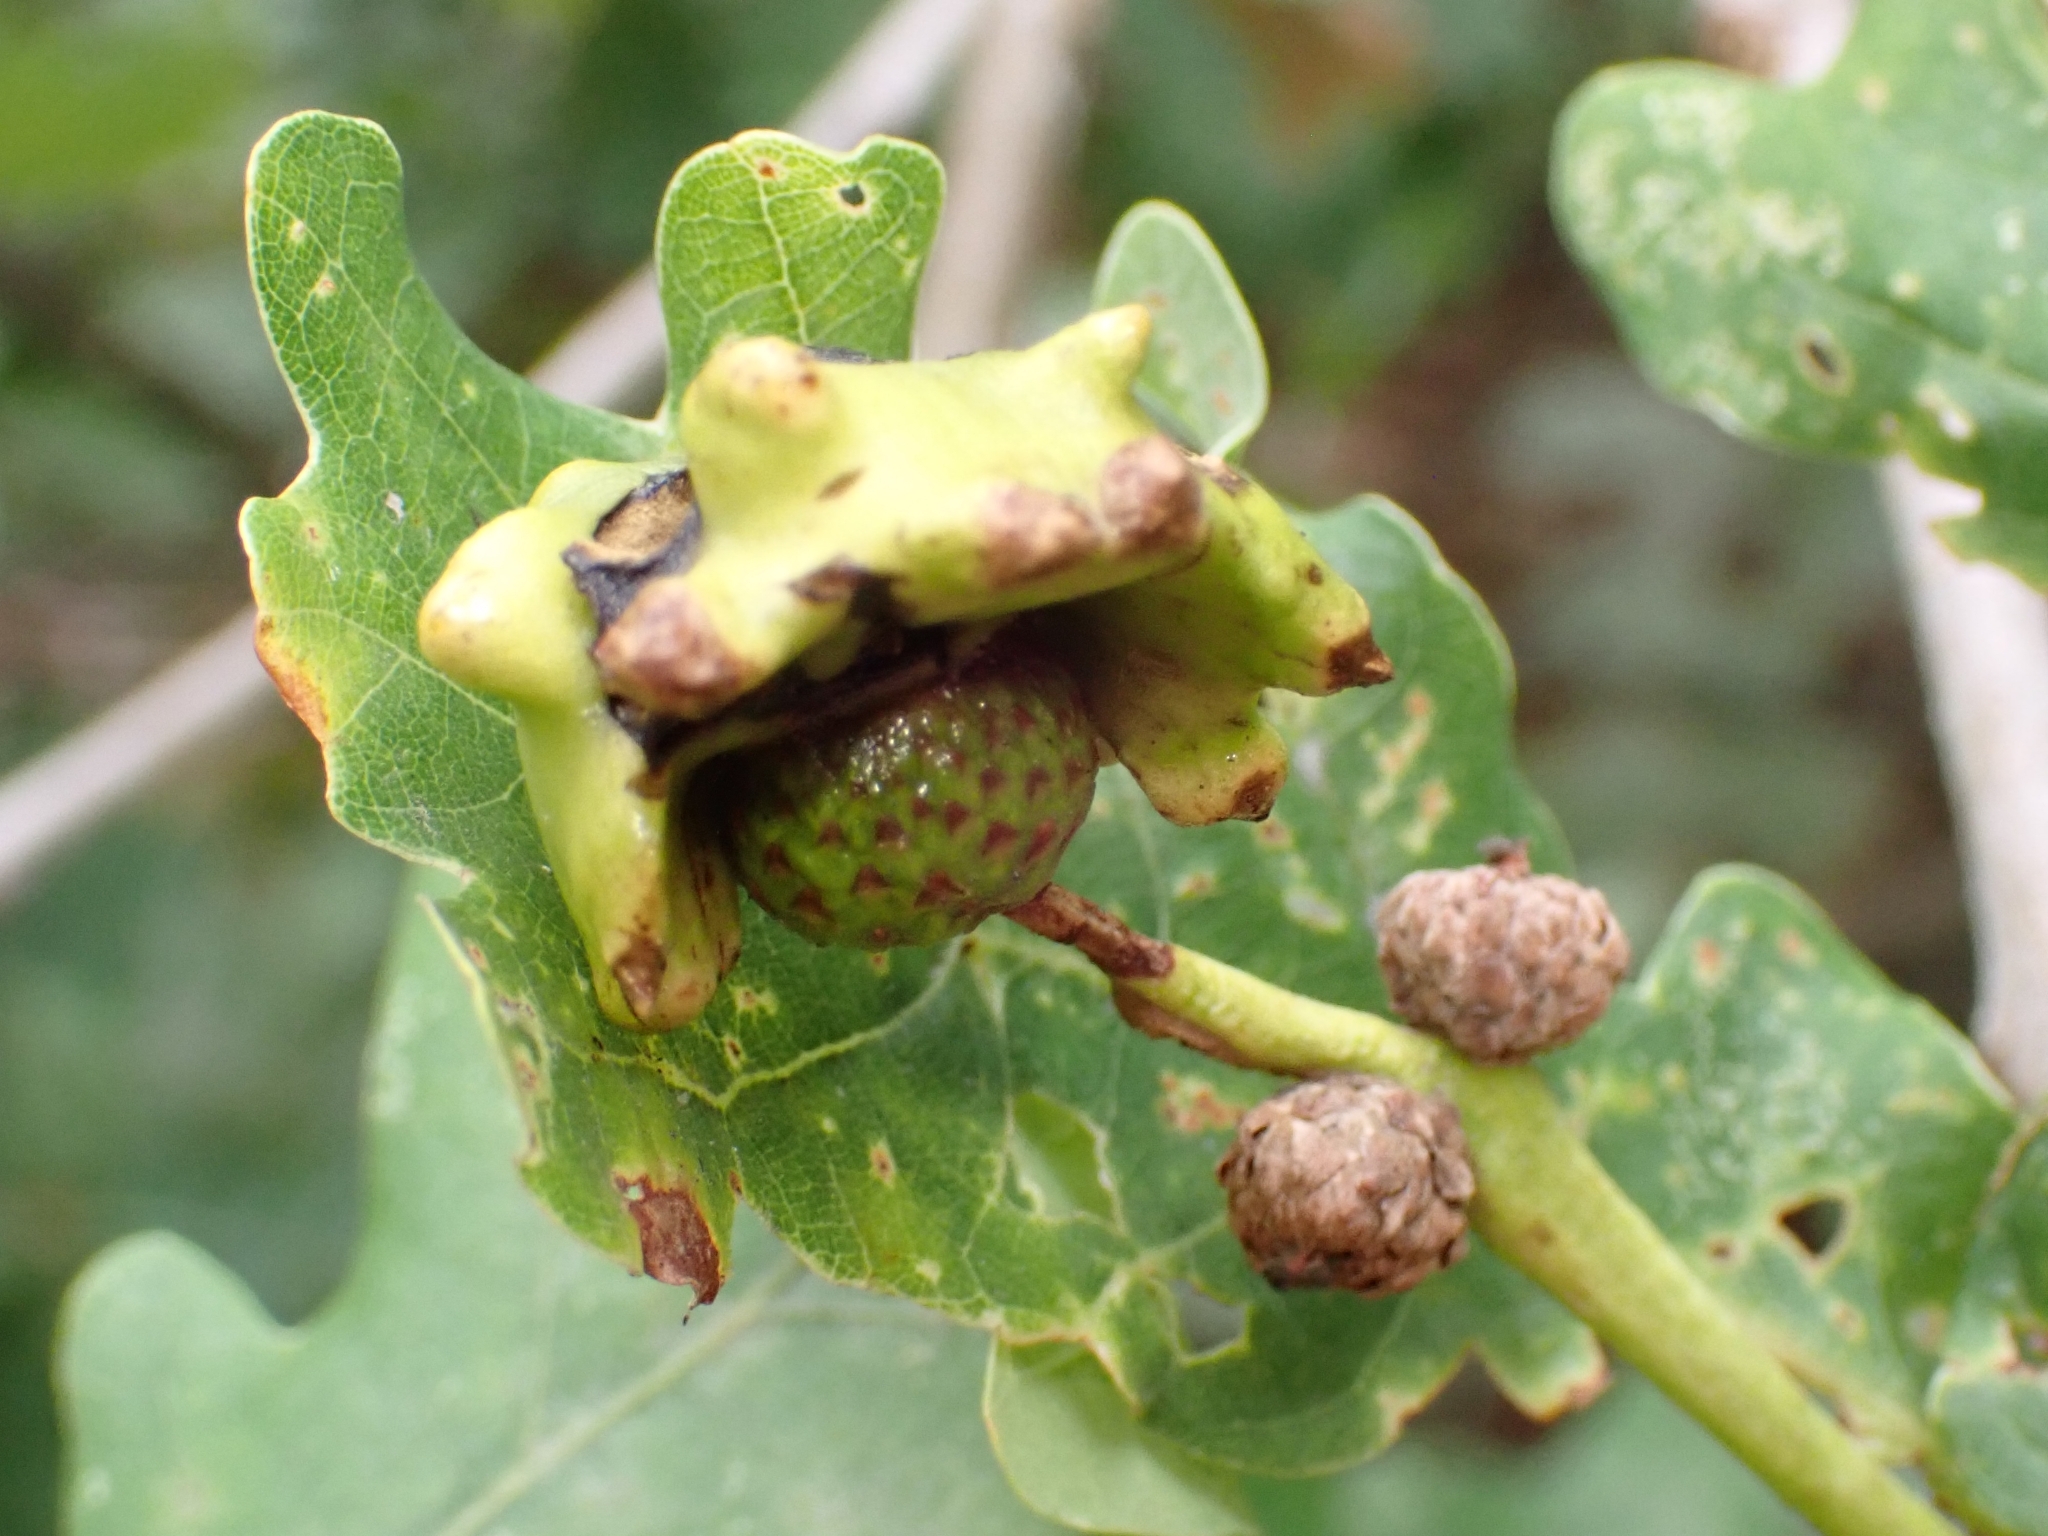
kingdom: Animalia
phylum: Arthropoda
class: Insecta
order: Hymenoptera
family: Cynipidae
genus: Andricus
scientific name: Andricus quercuscalicis
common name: Knopper gall
